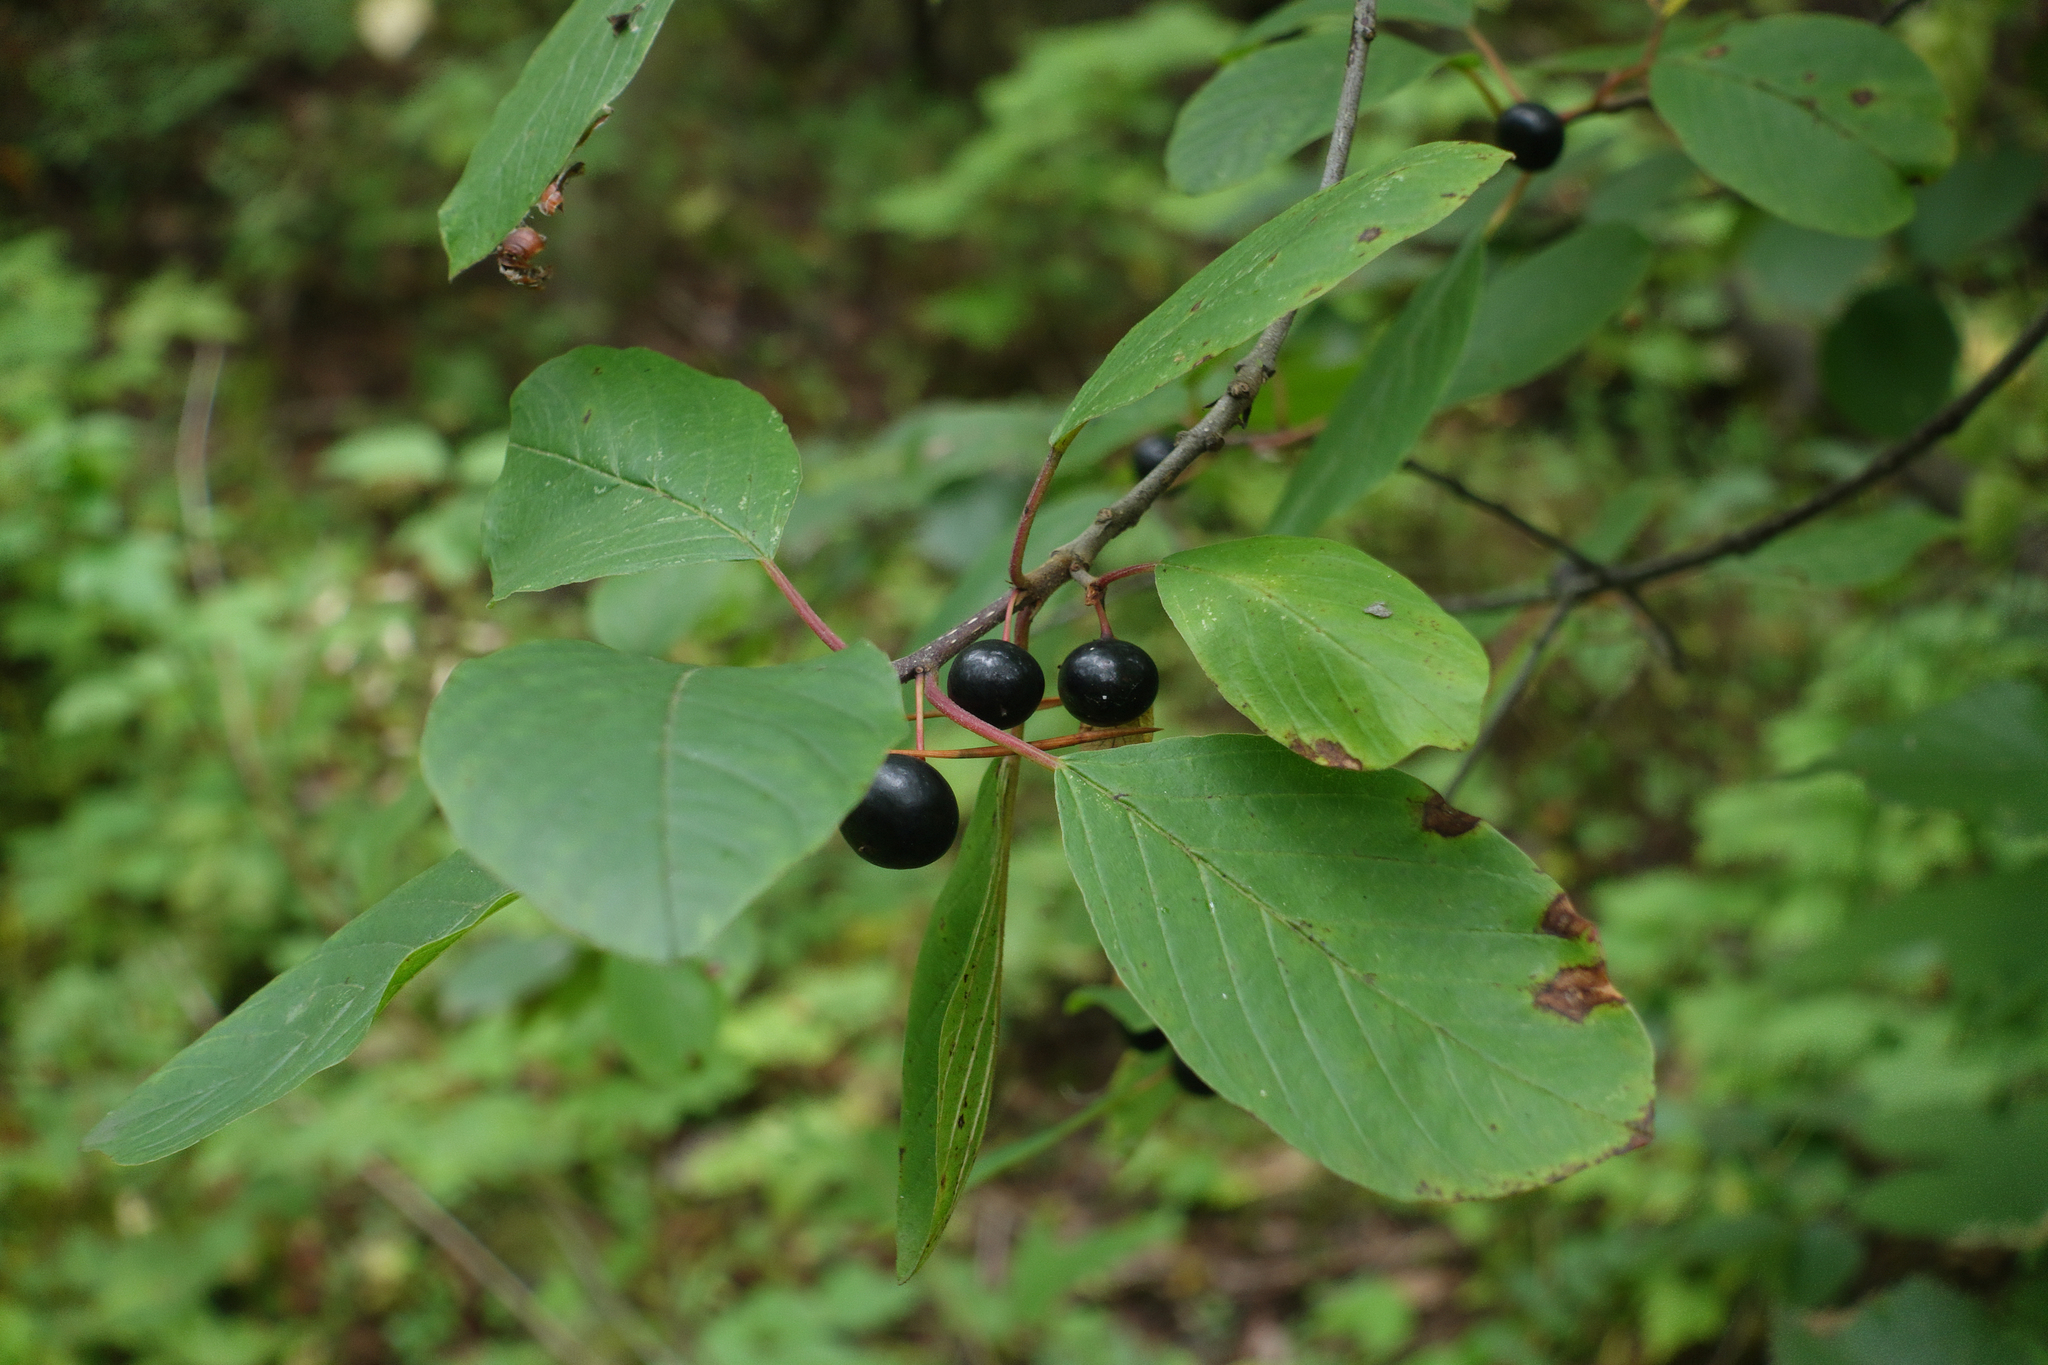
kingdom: Plantae
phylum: Tracheophyta
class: Magnoliopsida
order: Rosales
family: Rhamnaceae
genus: Frangula
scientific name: Frangula alnus
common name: Alder buckthorn
